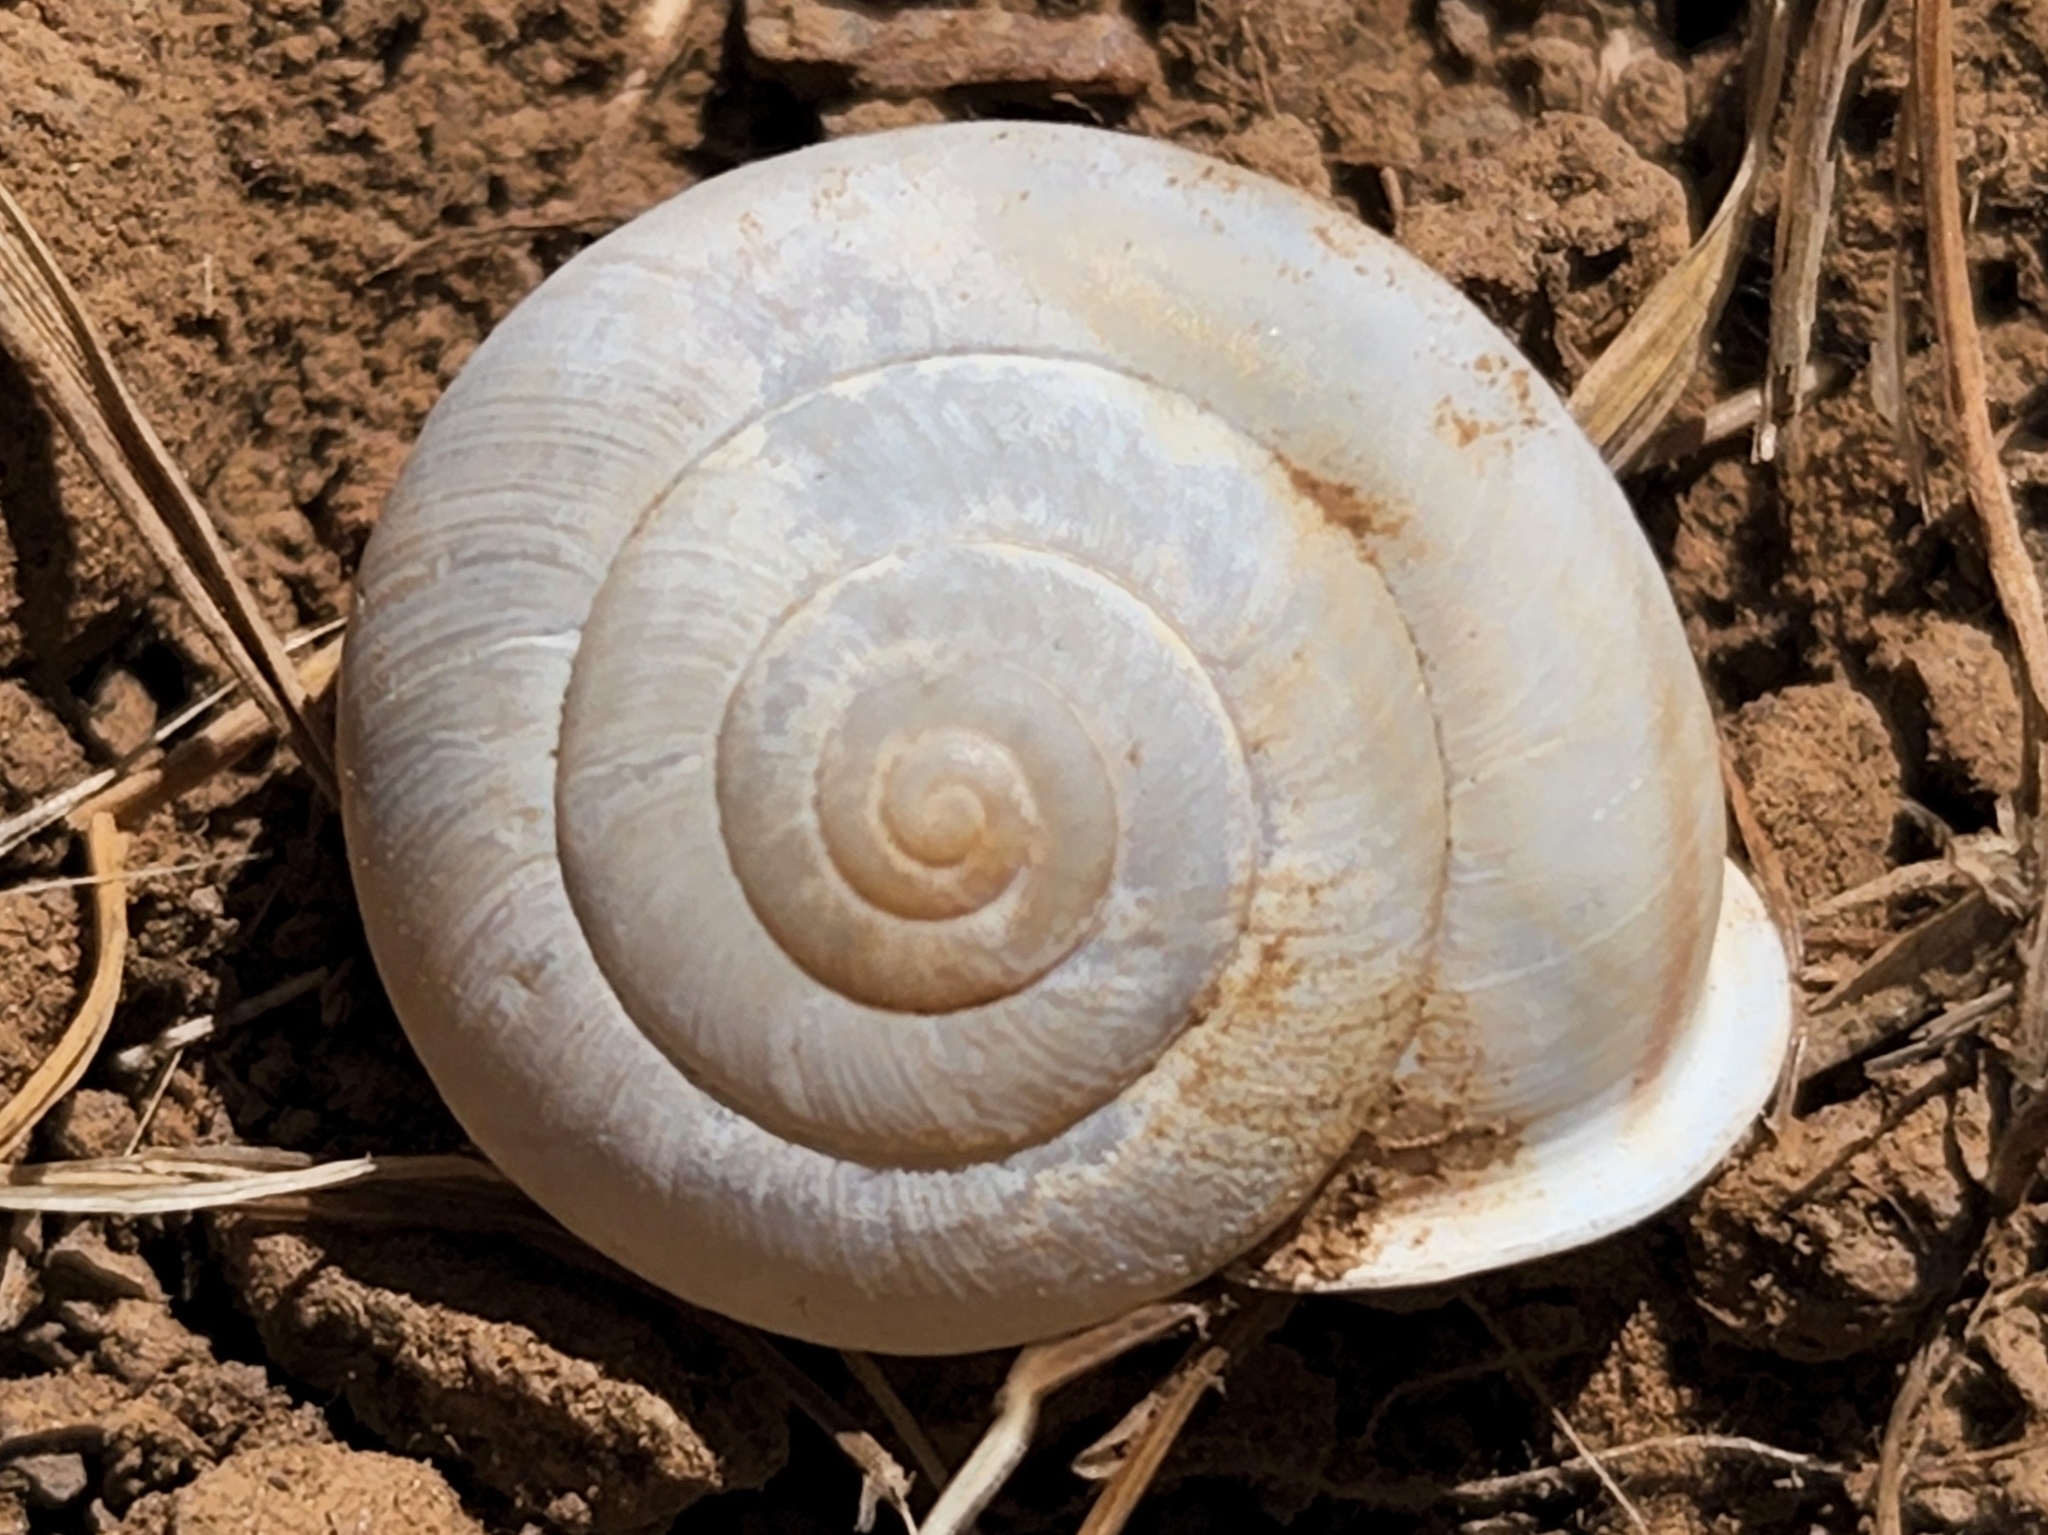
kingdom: Animalia
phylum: Mollusca
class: Gastropoda
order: Stylommatophora
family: Xanthonychidae
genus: Micrarionta
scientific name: Micrarionta rufocincta
